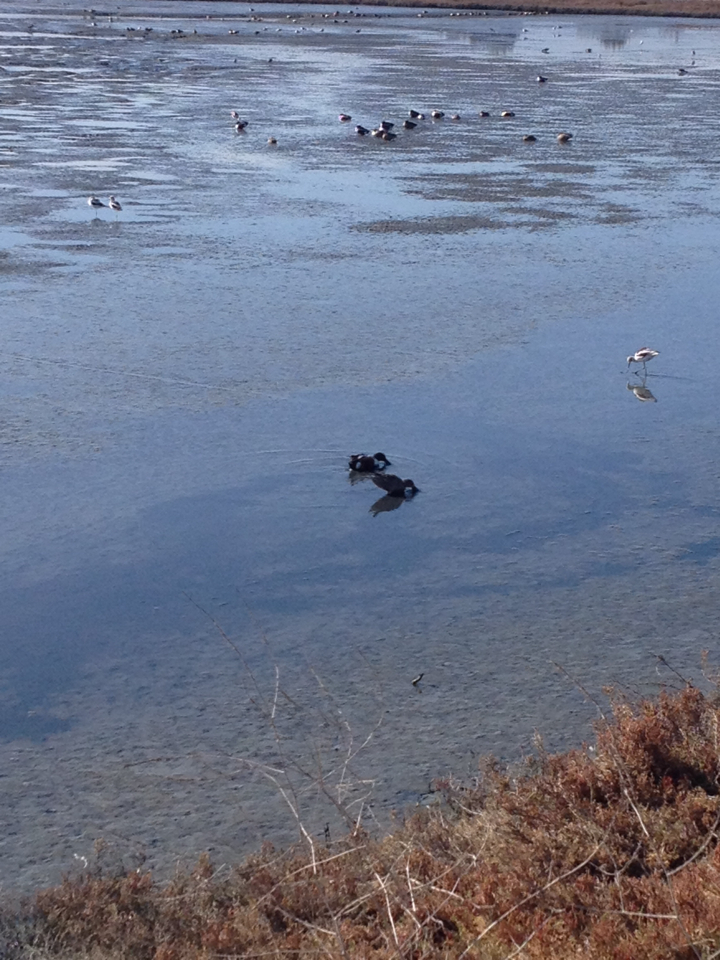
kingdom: Animalia
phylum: Chordata
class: Aves
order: Anseriformes
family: Anatidae
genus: Spatula
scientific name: Spatula clypeata
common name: Northern shoveler
